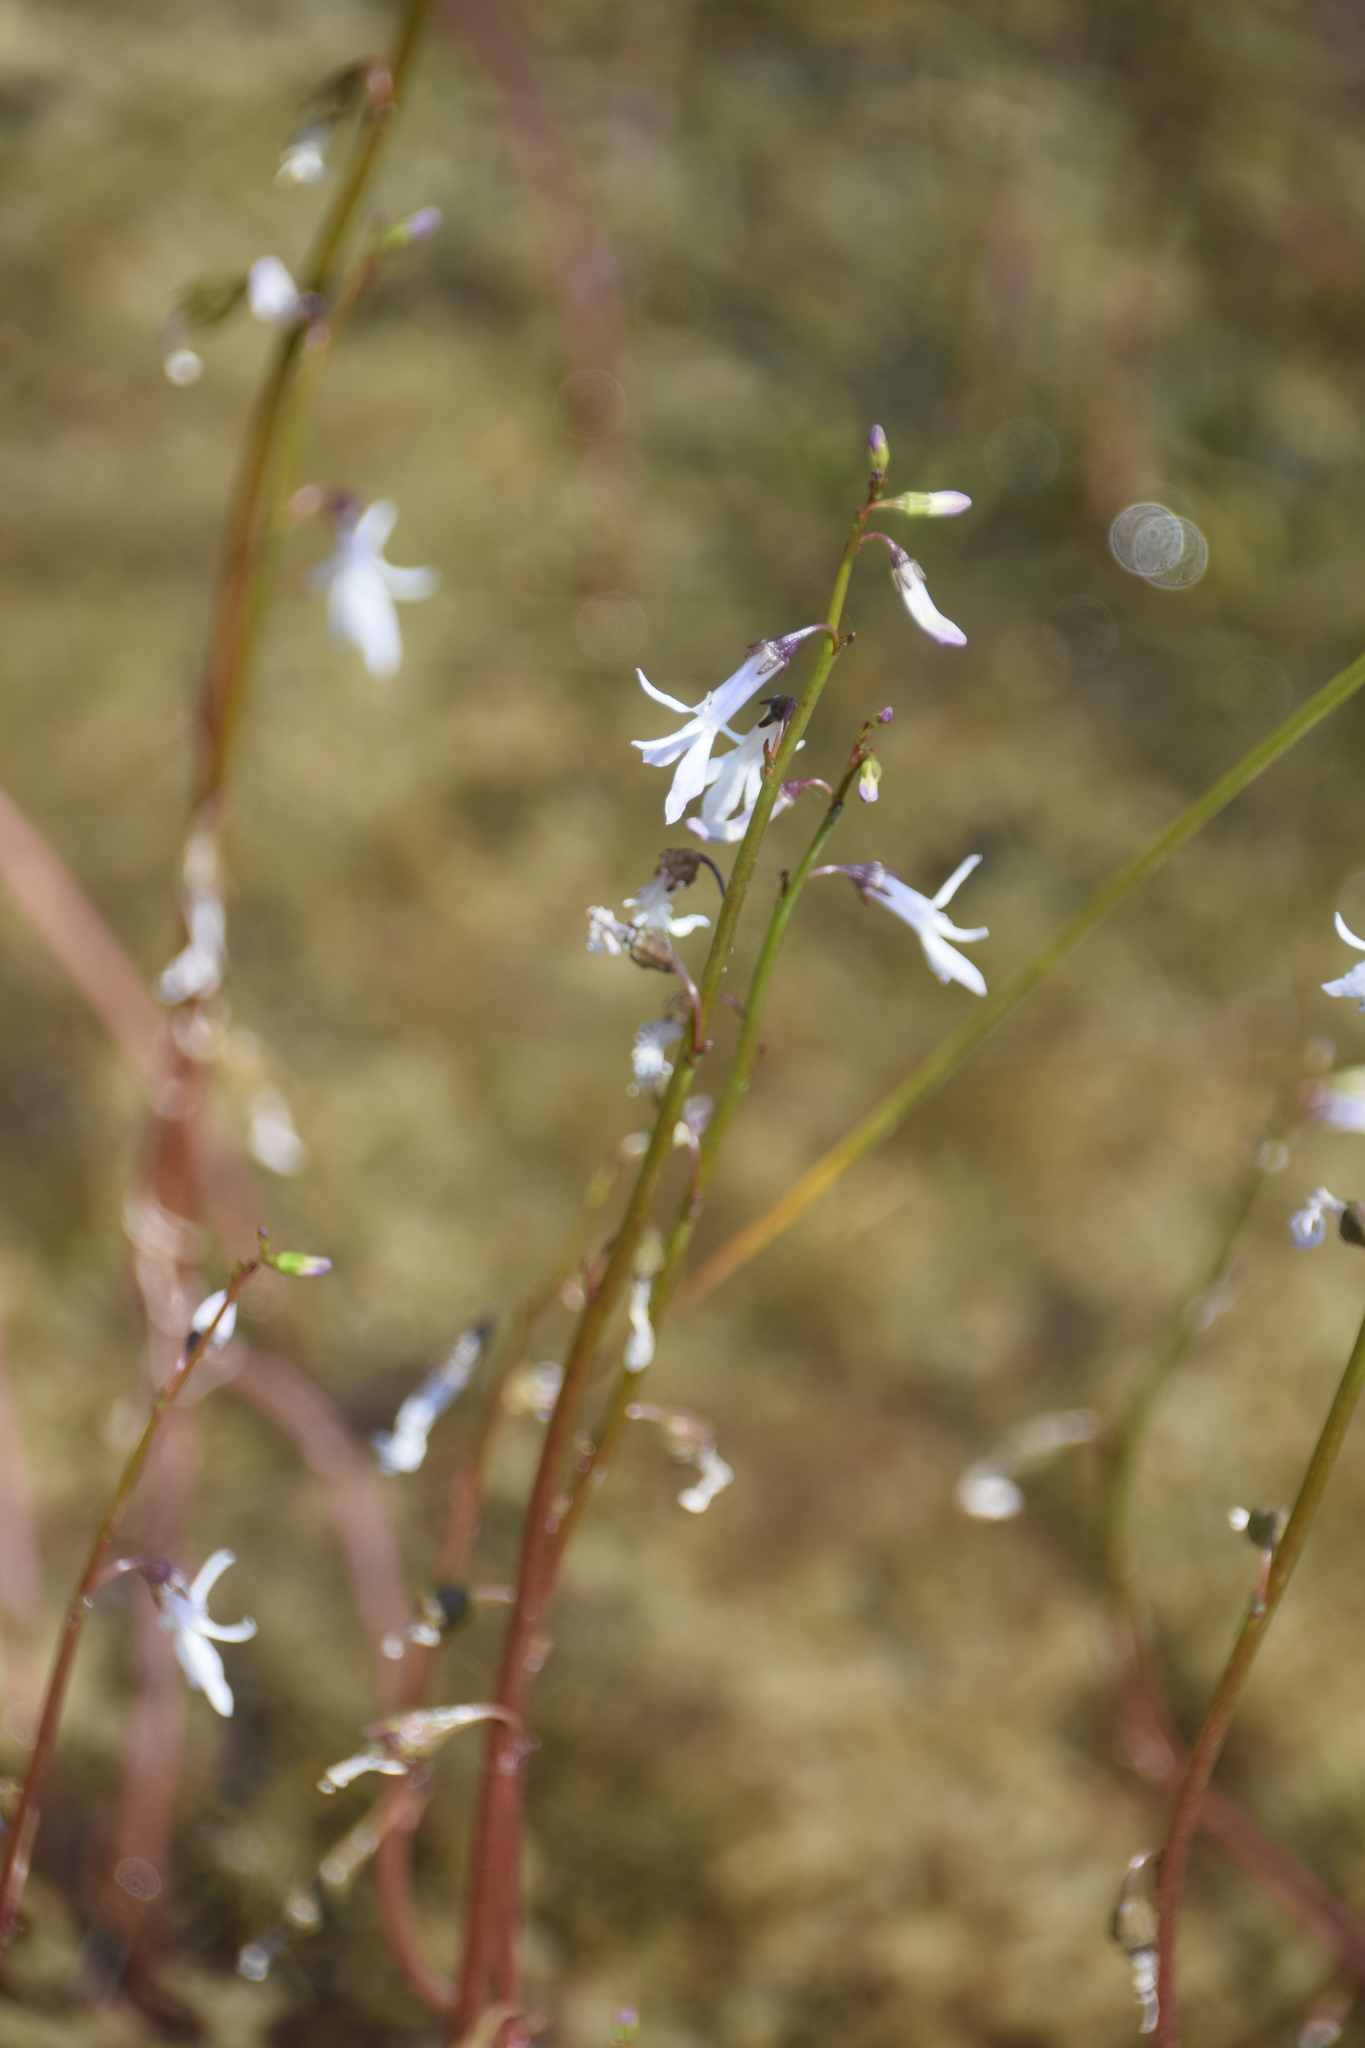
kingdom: Plantae
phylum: Tracheophyta
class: Magnoliopsida
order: Asterales
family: Campanulaceae
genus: Lobelia
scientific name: Lobelia dortmanna
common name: Water lobelia
